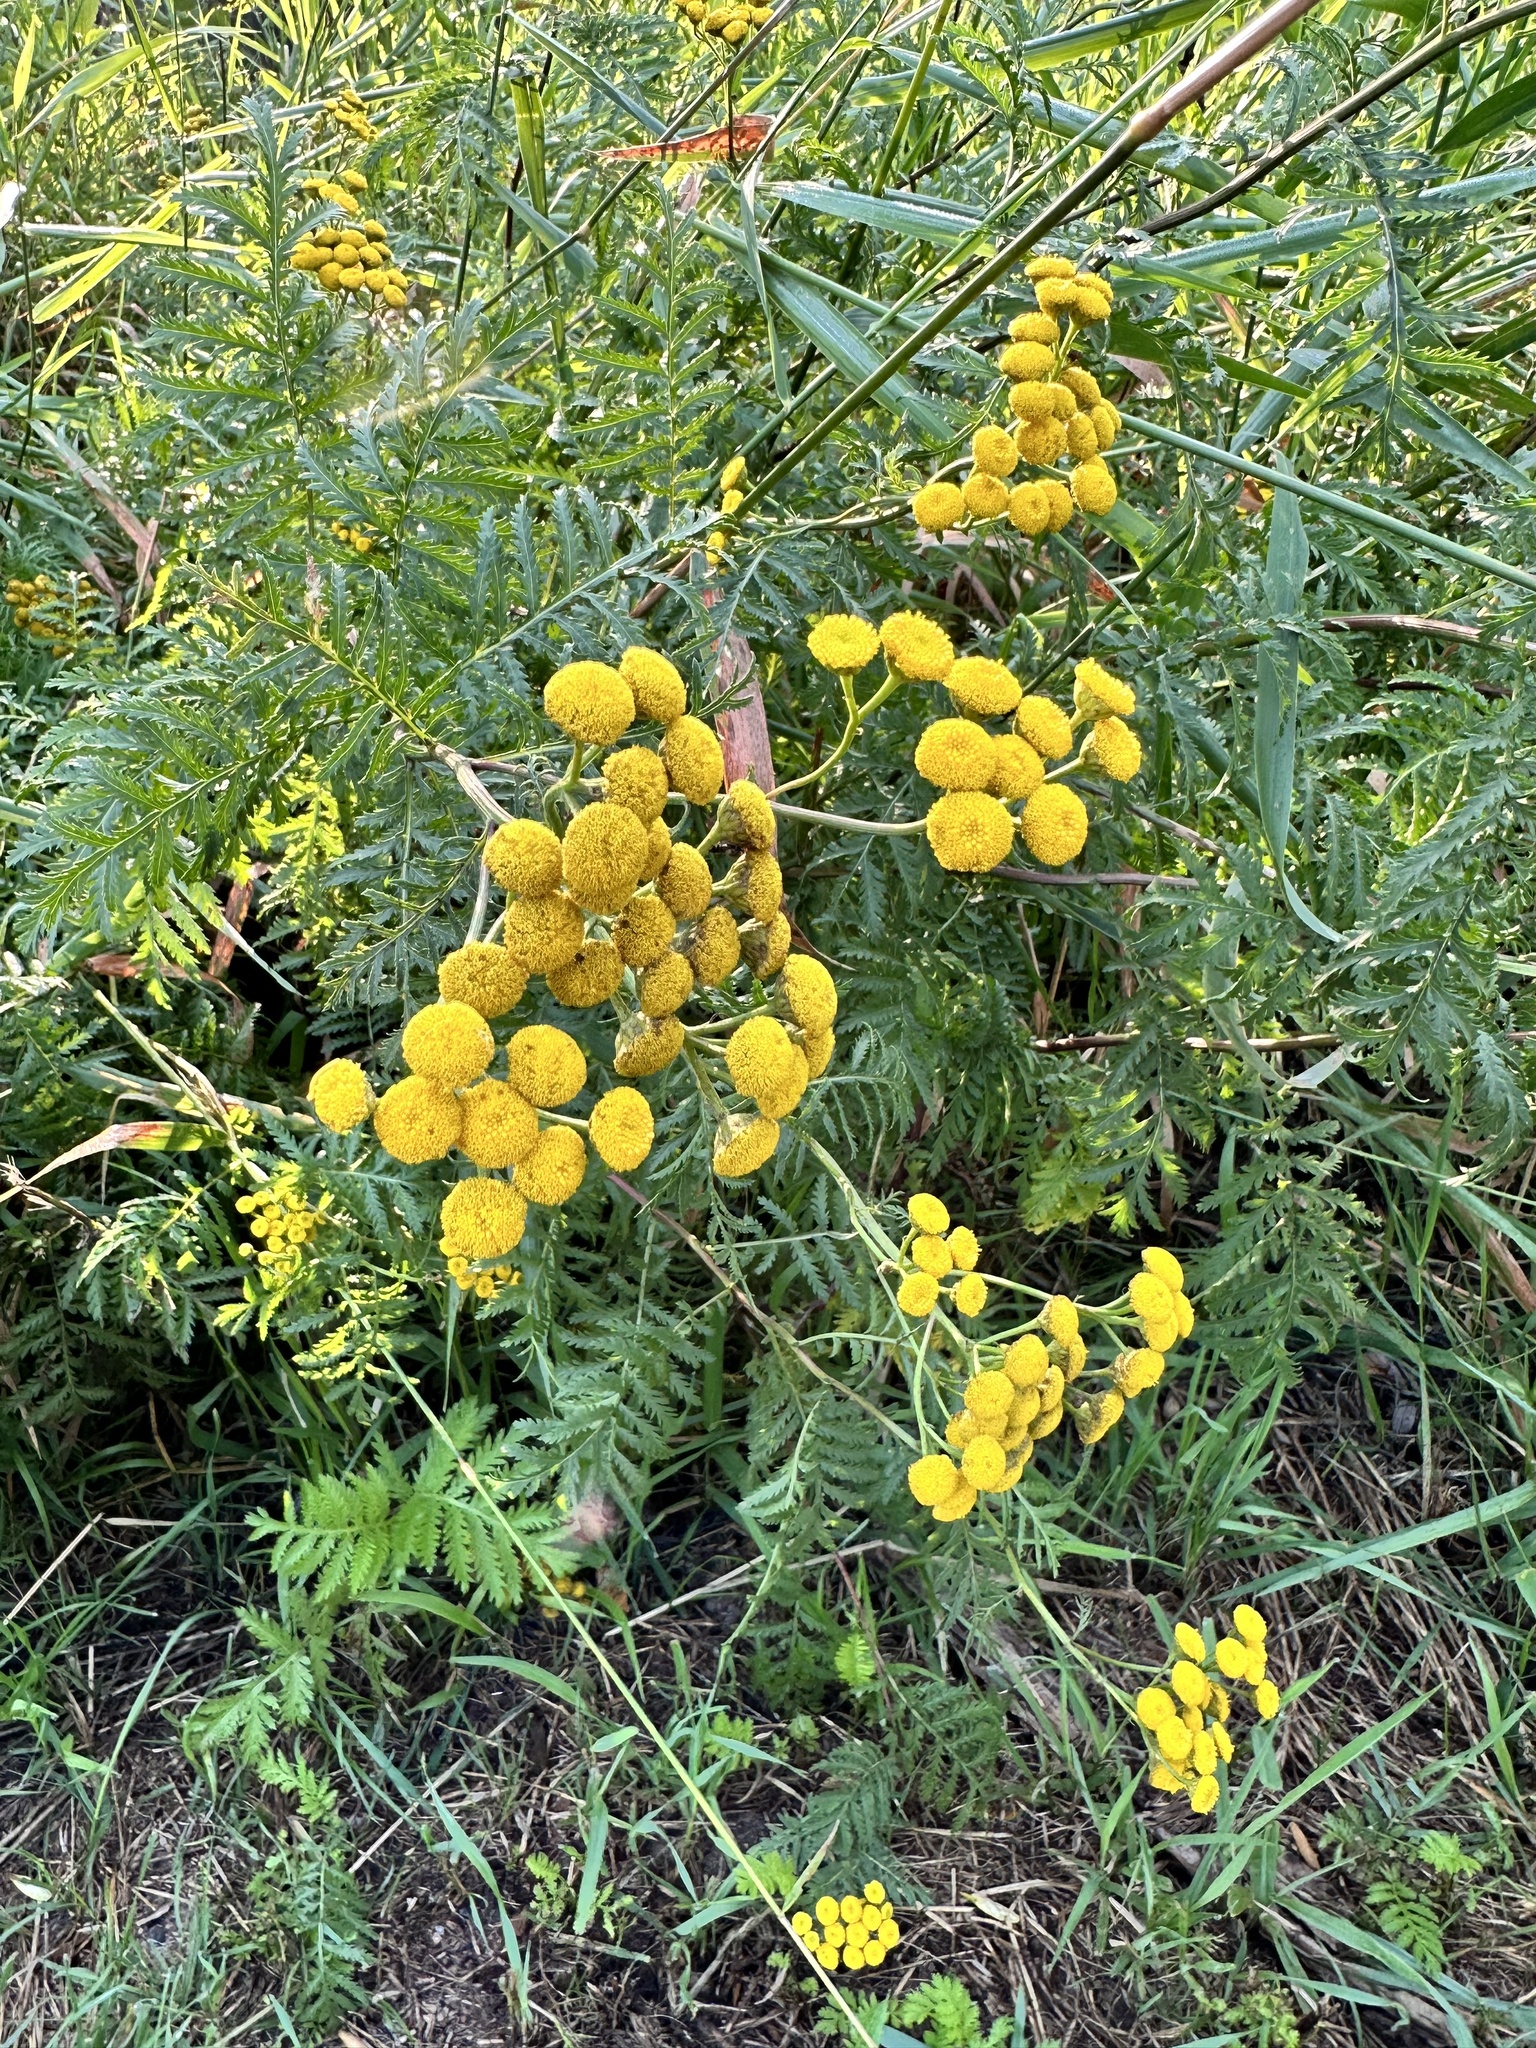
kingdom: Plantae
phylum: Tracheophyta
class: Magnoliopsida
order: Asterales
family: Asteraceae
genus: Tanacetum
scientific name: Tanacetum vulgare
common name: Common tansy
